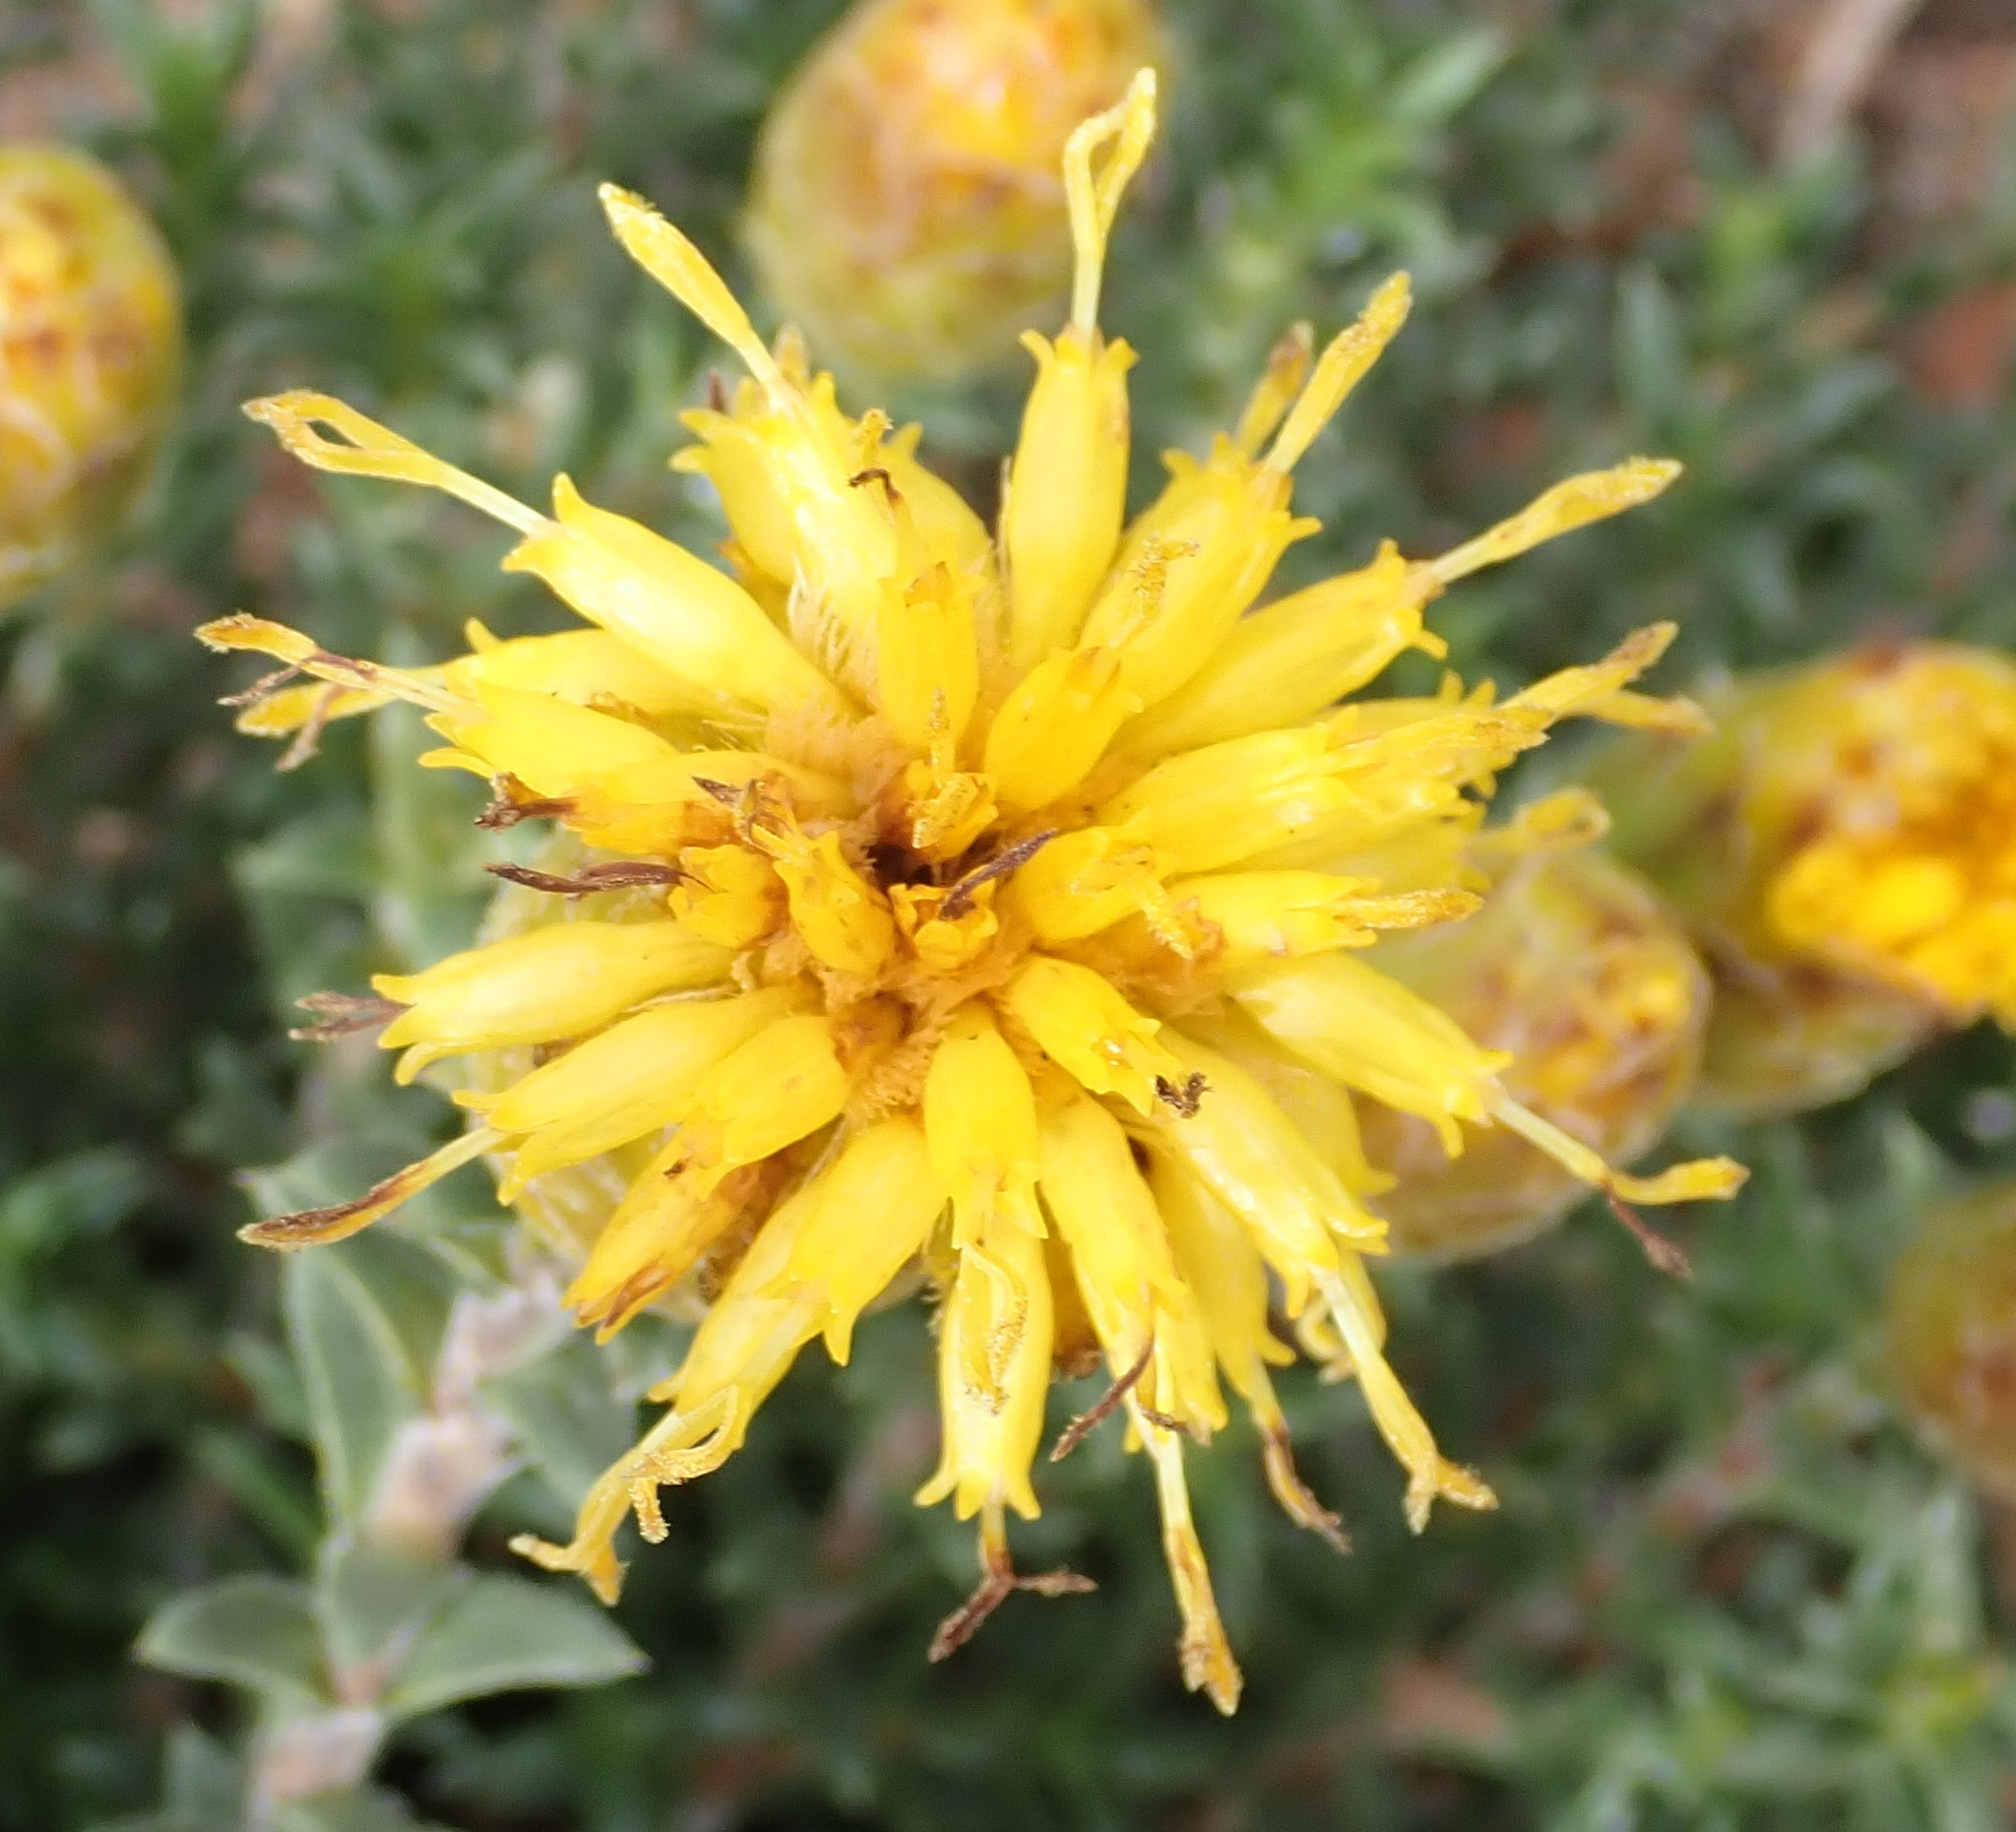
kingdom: Plantae
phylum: Tracheophyta
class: Magnoliopsida
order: Asterales
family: Asteraceae
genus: Pteronia
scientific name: Pteronia elongata
